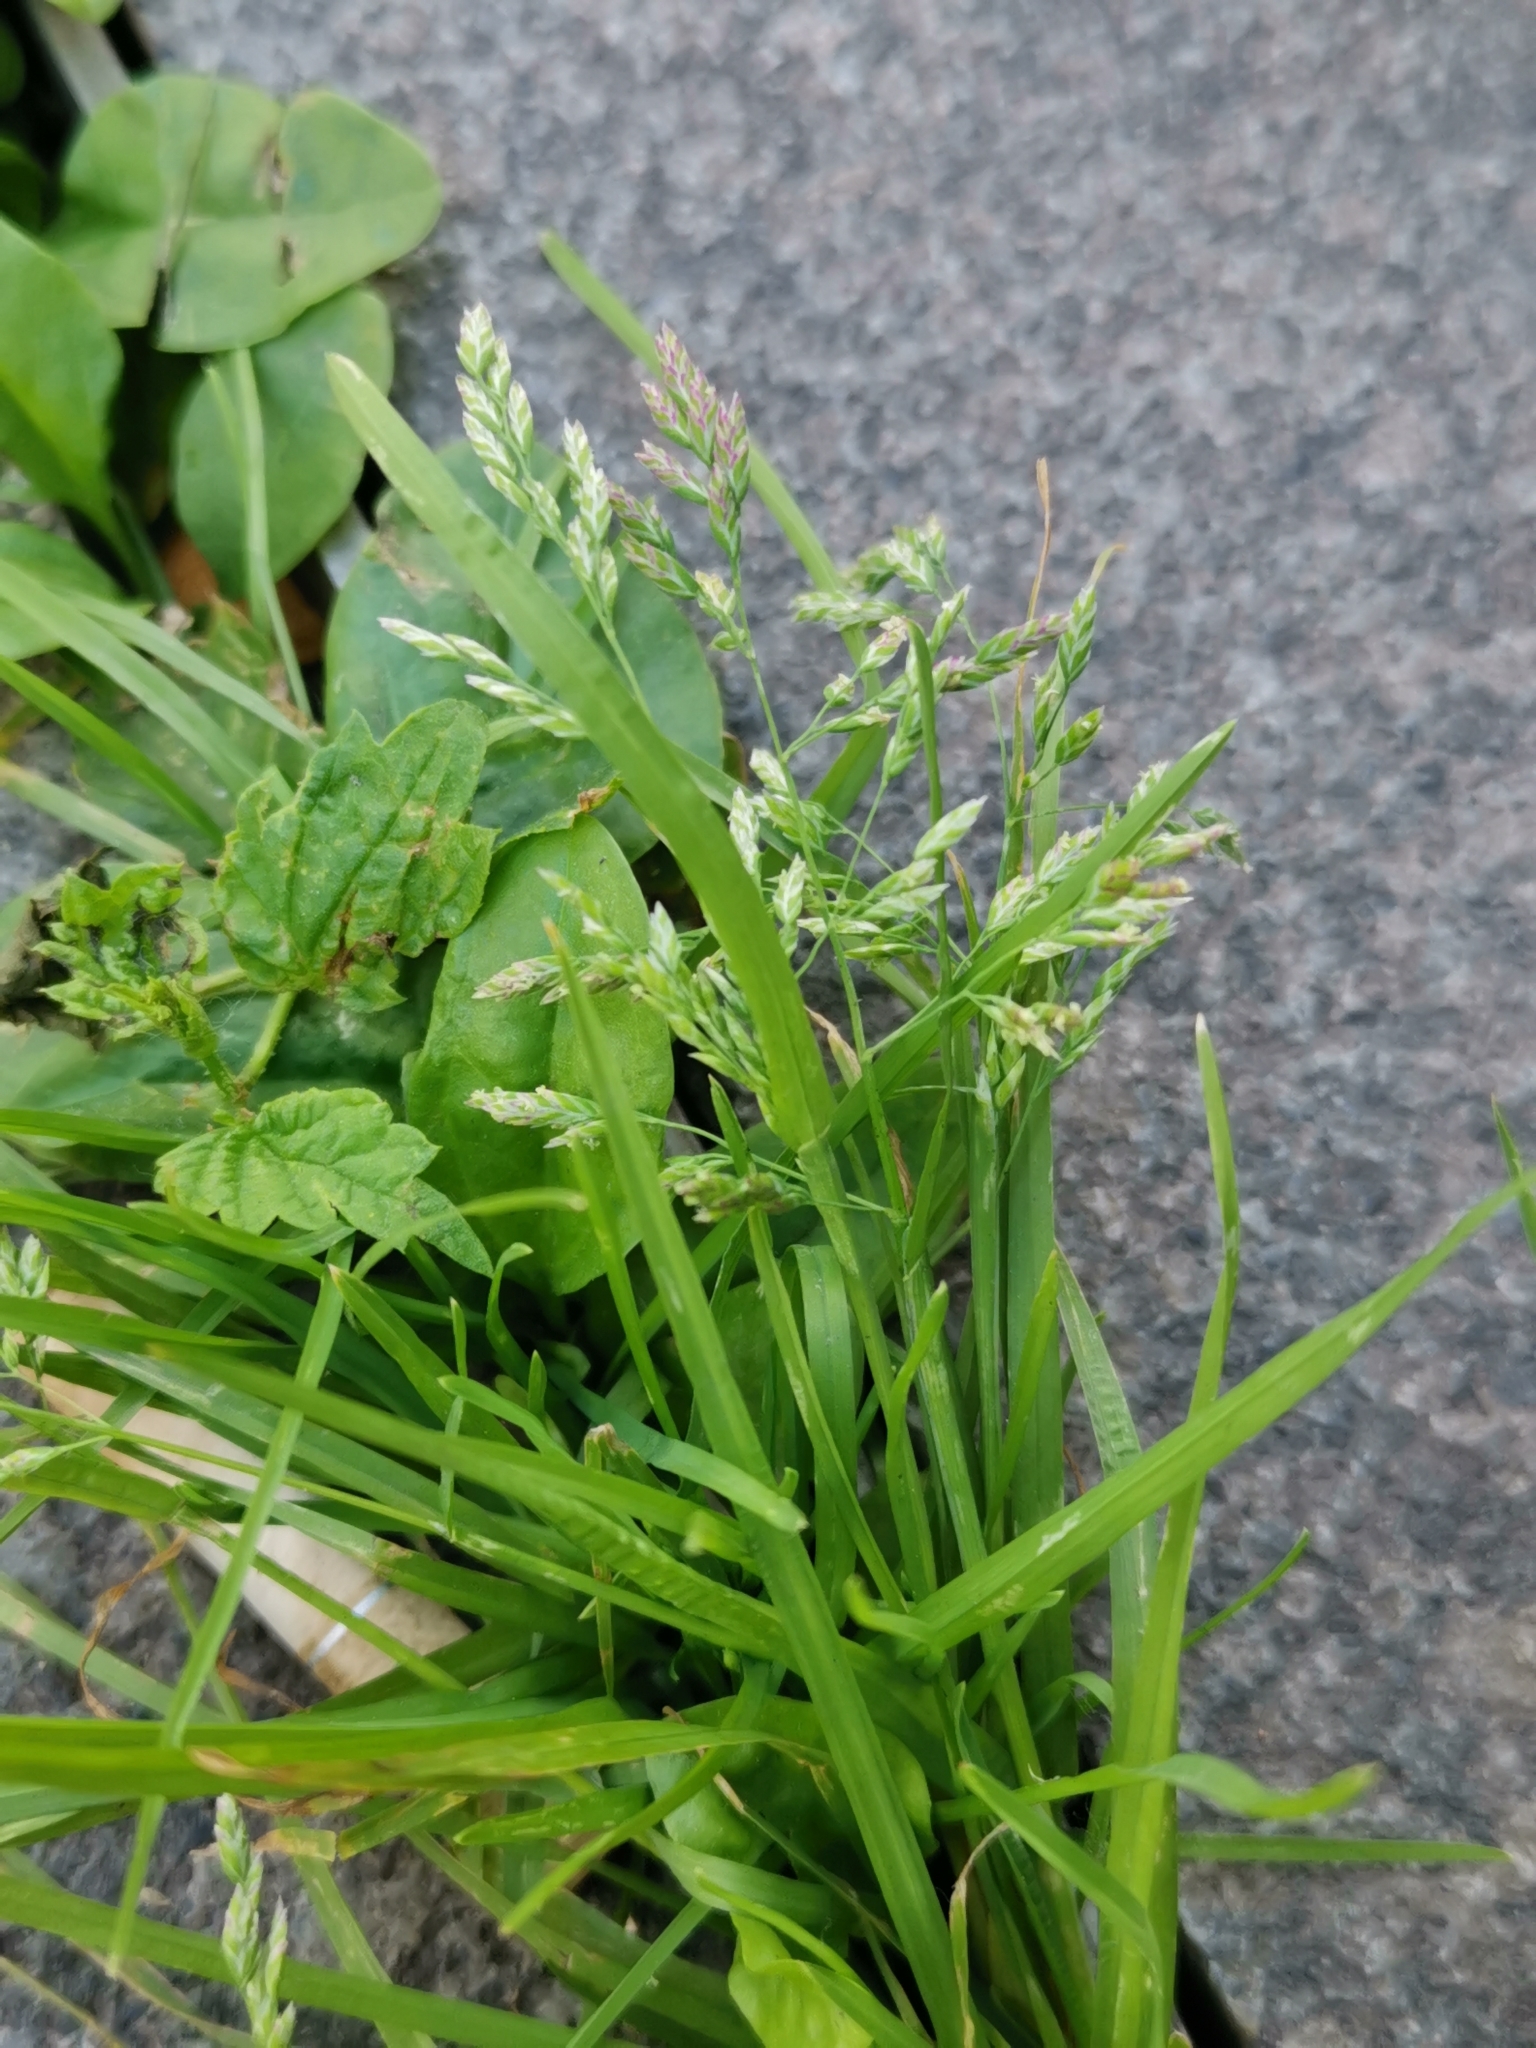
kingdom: Plantae
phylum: Tracheophyta
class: Liliopsida
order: Poales
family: Poaceae
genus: Poa
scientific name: Poa annua
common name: Annual bluegrass
